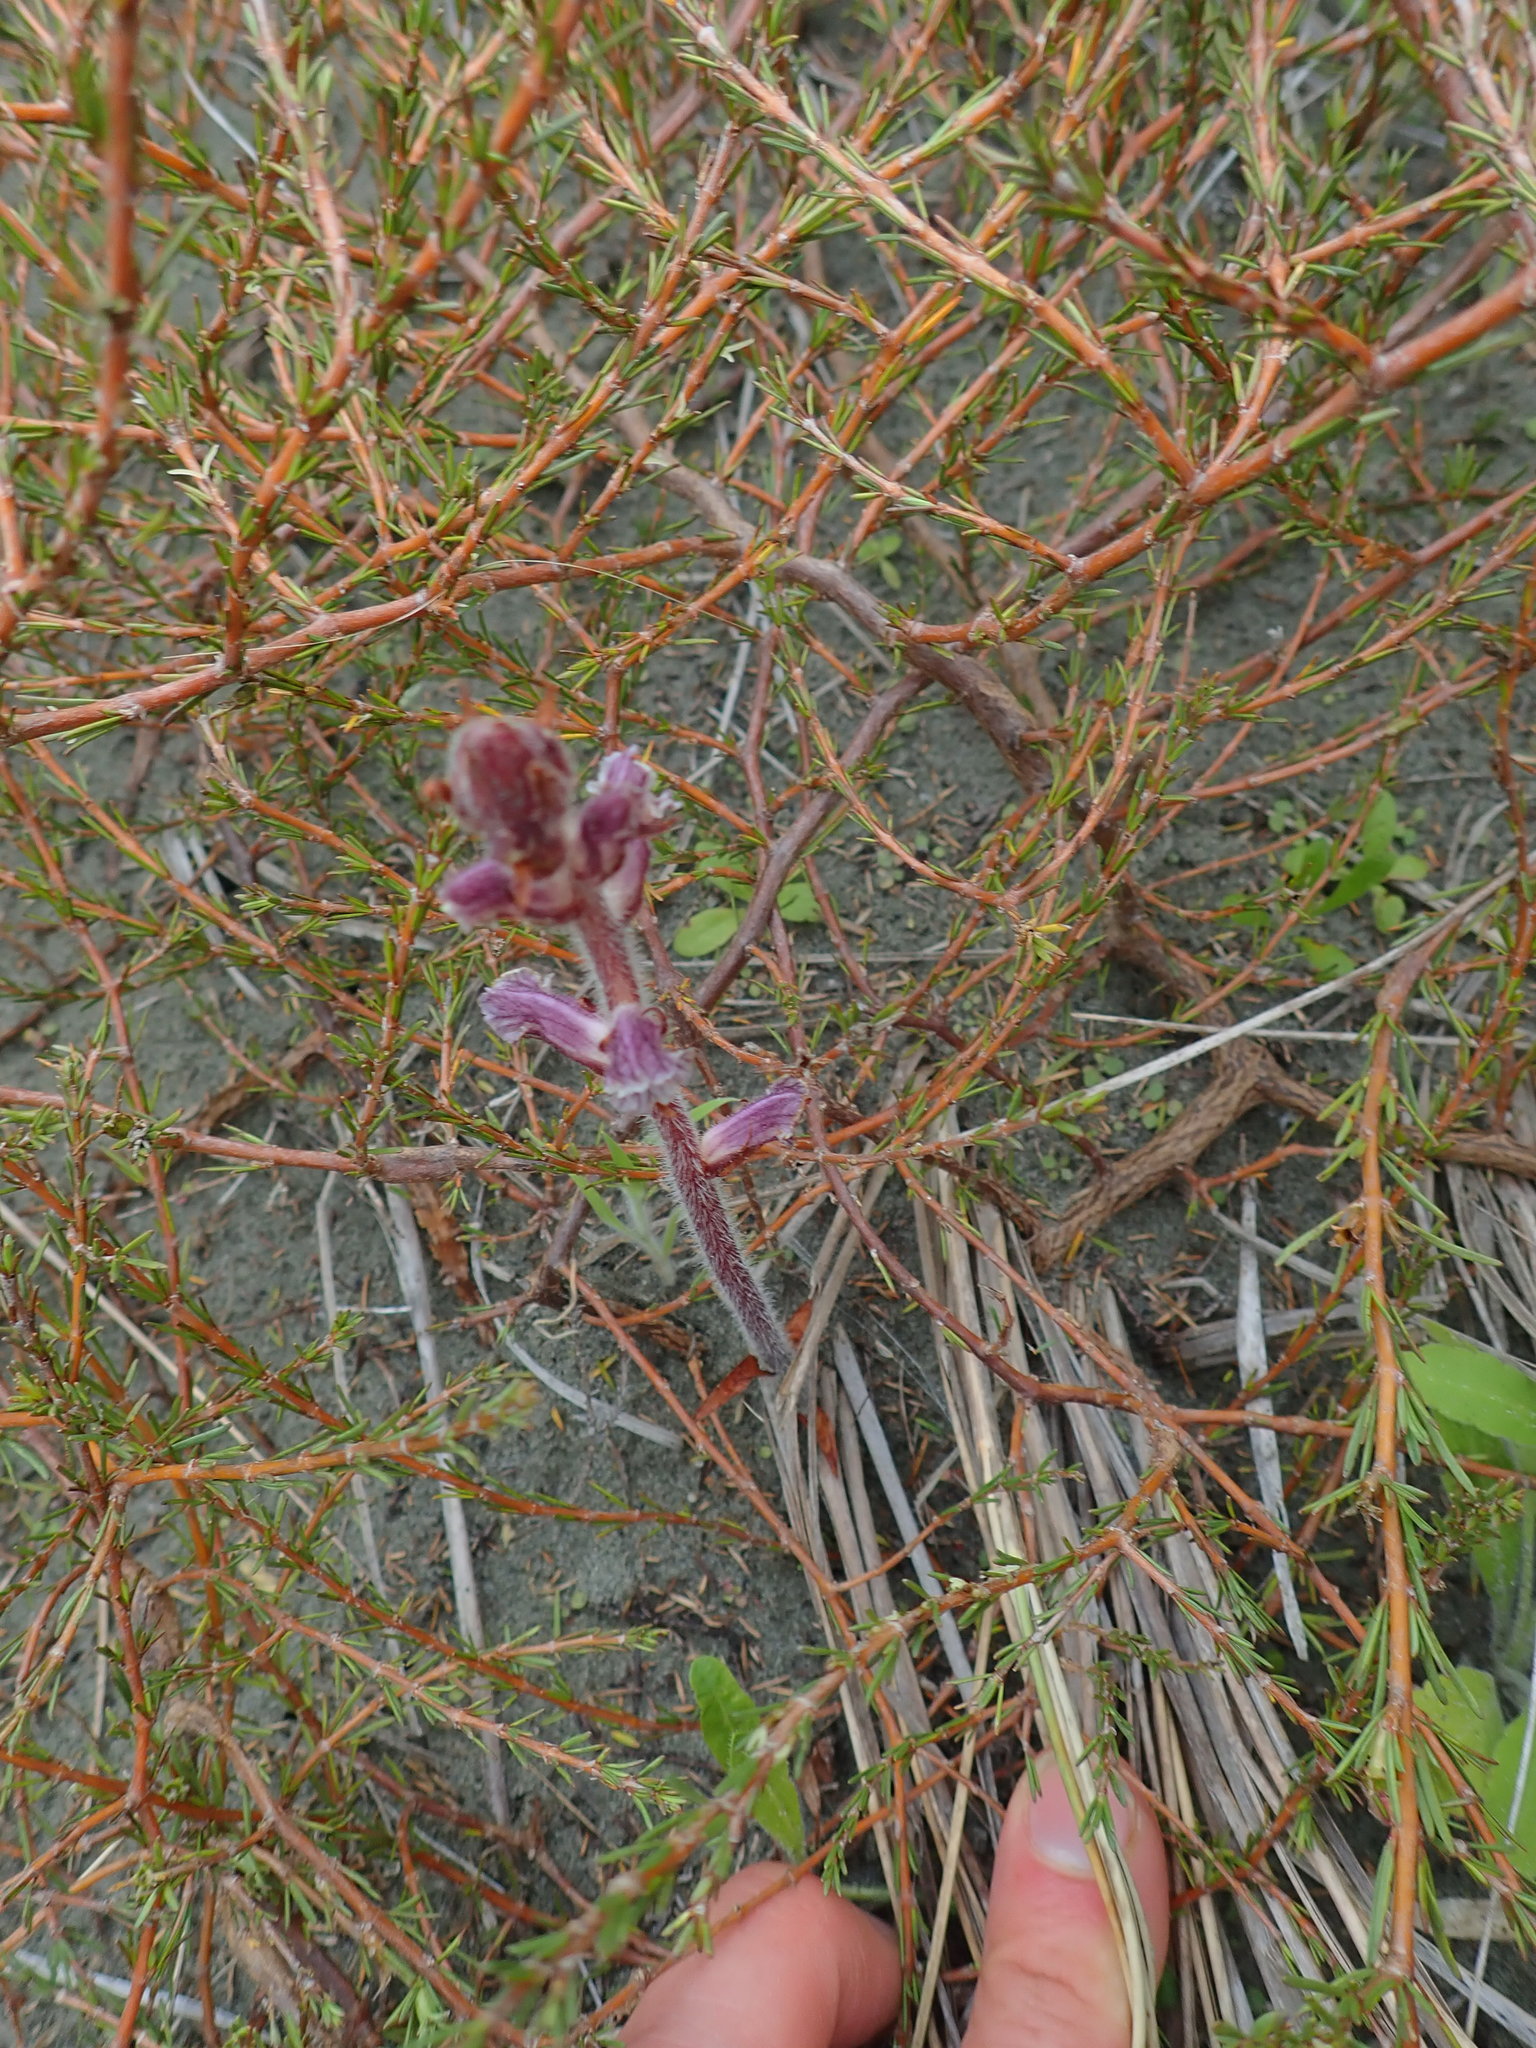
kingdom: Plantae
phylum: Tracheophyta
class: Magnoliopsida
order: Lamiales
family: Orobanchaceae
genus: Orobanche
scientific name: Orobanche minor
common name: Common broomrape
